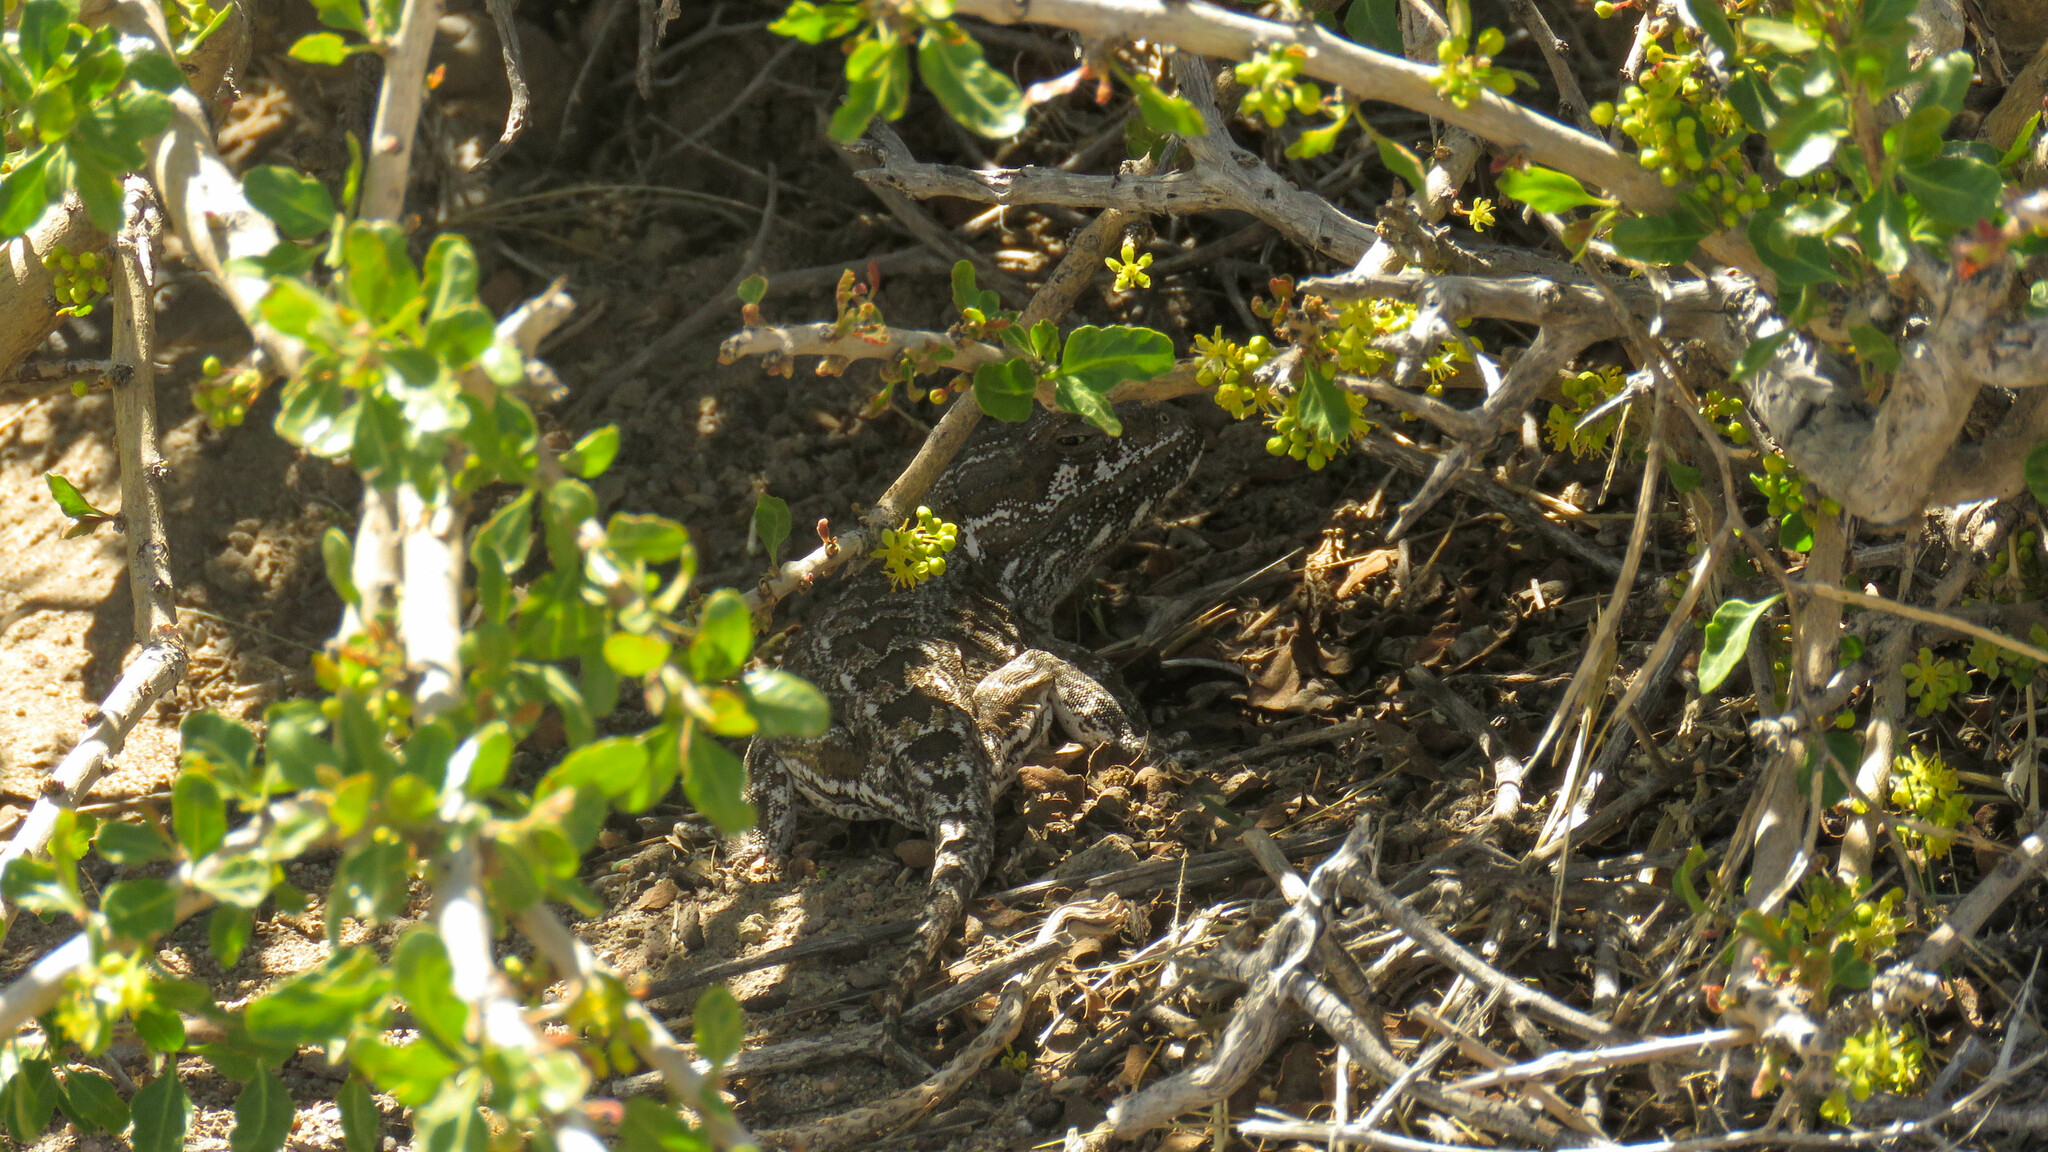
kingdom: Animalia
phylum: Chordata
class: Squamata
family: Leiosauridae
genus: Leiosaurus
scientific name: Leiosaurus bellii
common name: Bell's anole
